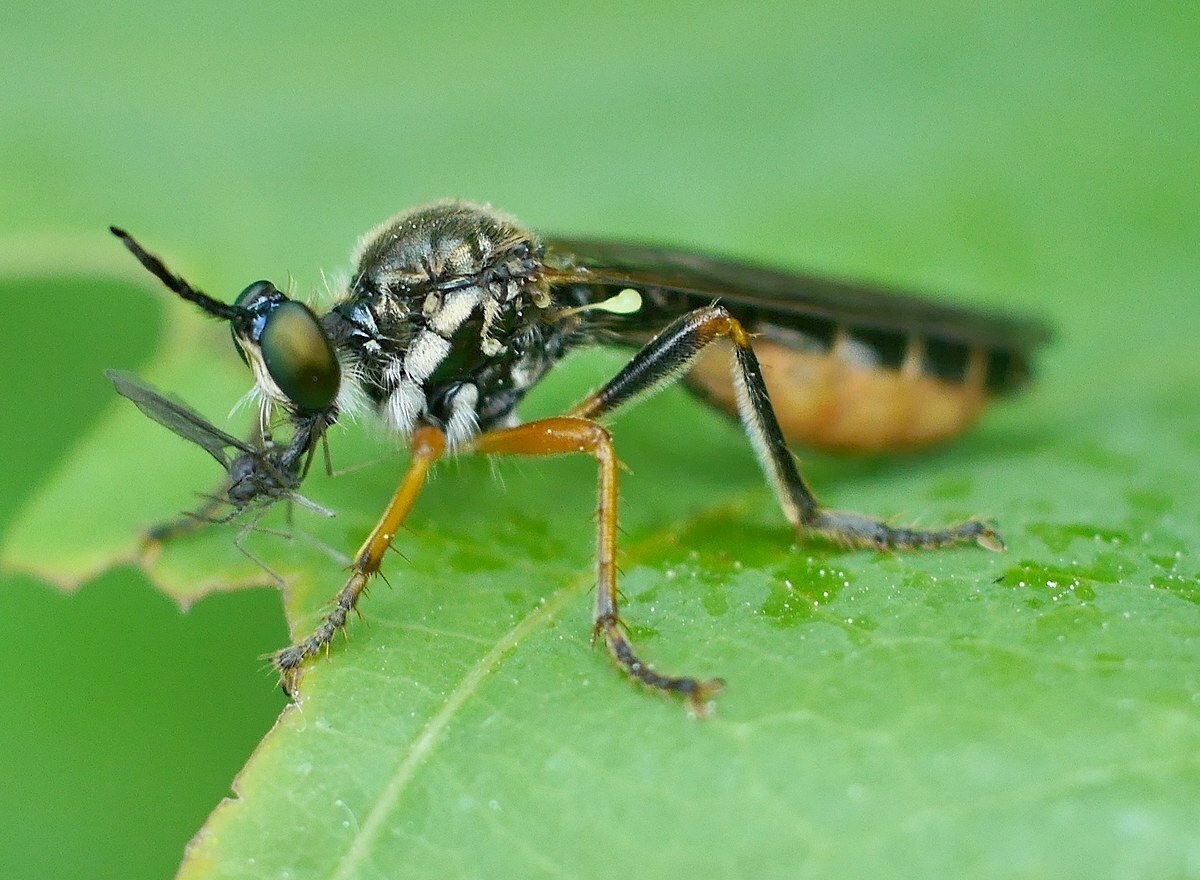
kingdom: Animalia
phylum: Arthropoda
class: Insecta
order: Diptera
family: Asilidae
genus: Dioctria
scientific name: Dioctria rufipes
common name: Common red-legged robberfly
